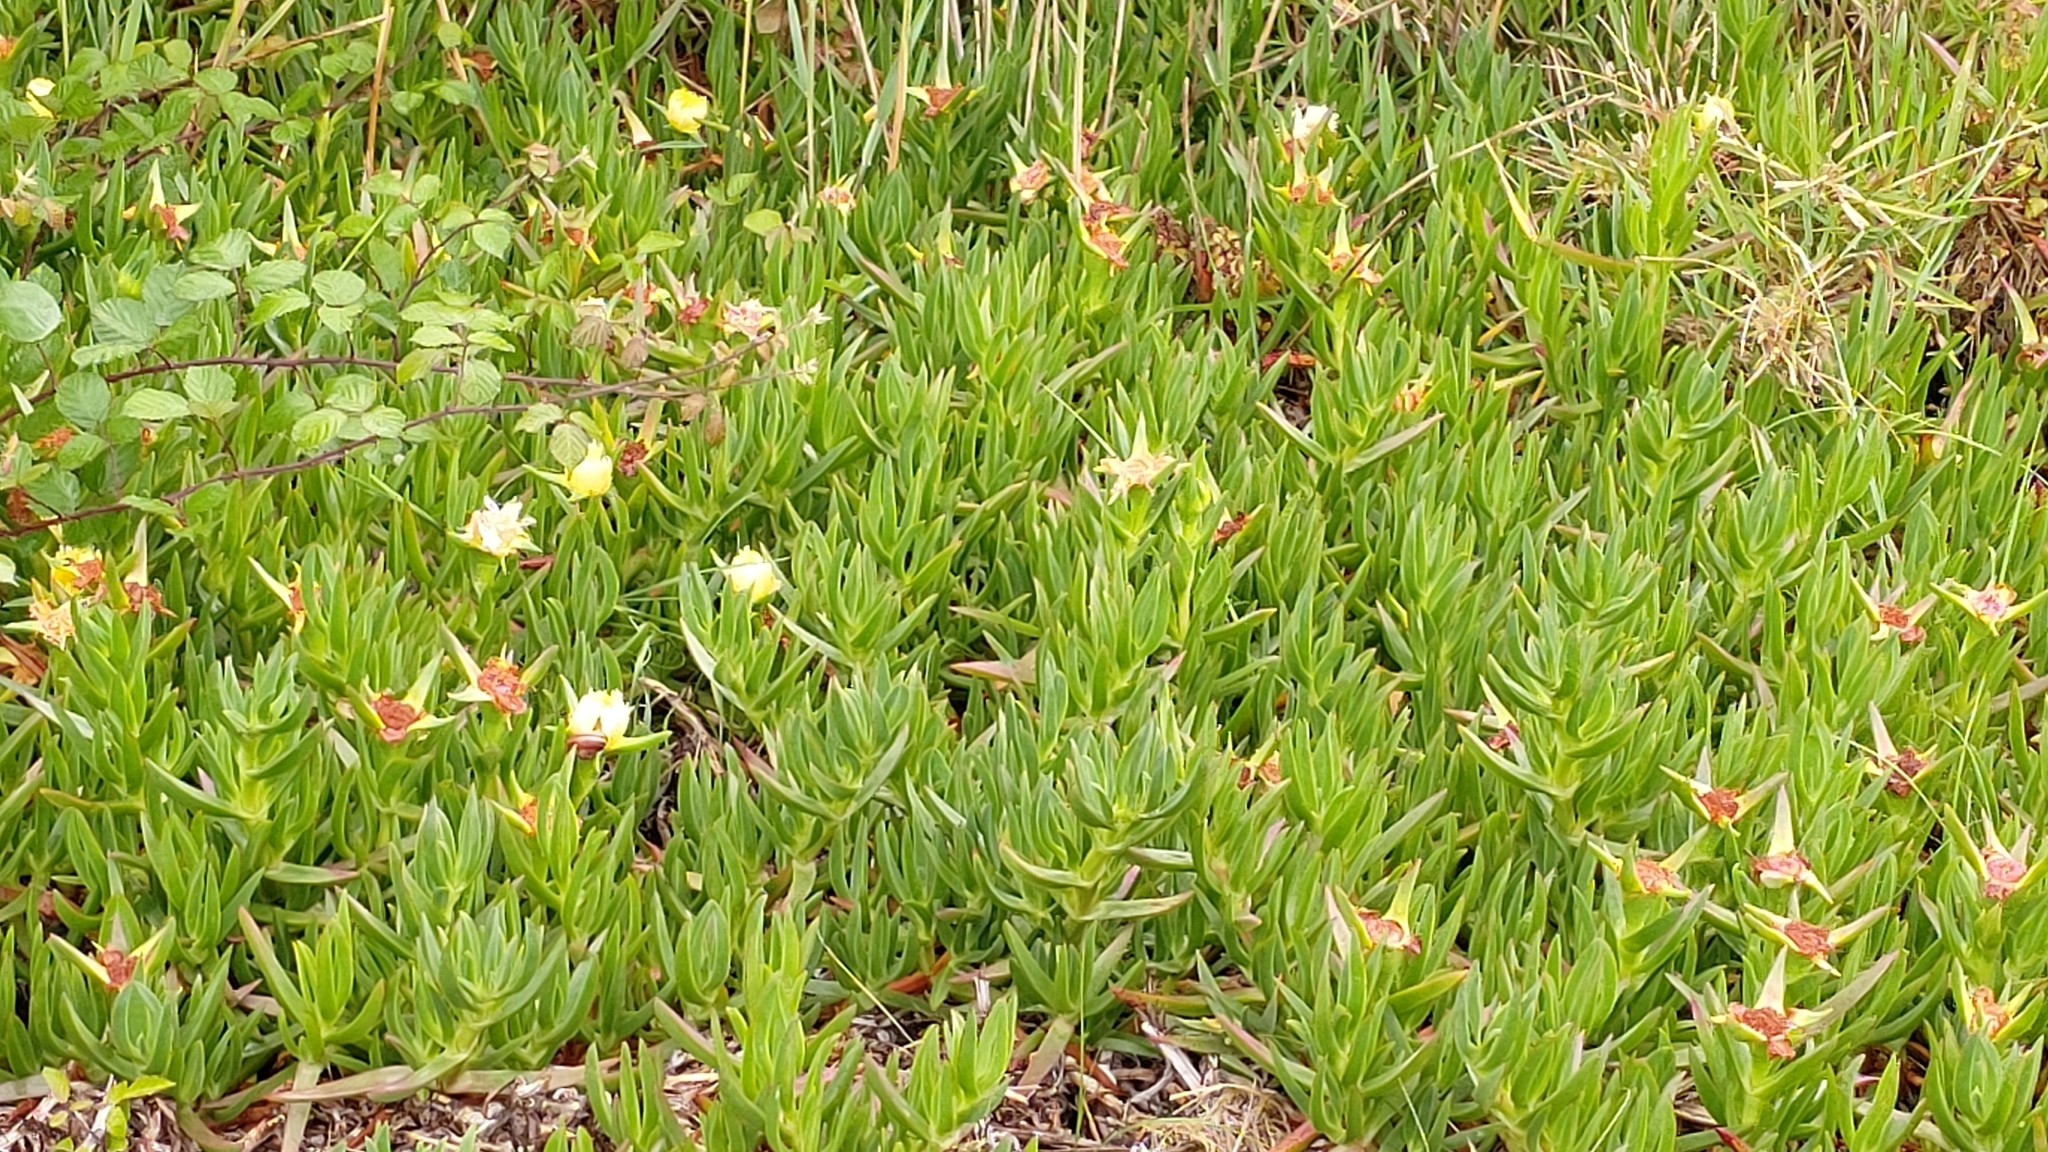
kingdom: Plantae
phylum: Tracheophyta
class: Magnoliopsida
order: Caryophyllales
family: Aizoaceae
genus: Carpobrotus
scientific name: Carpobrotus edulis
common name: Hottentot-fig
